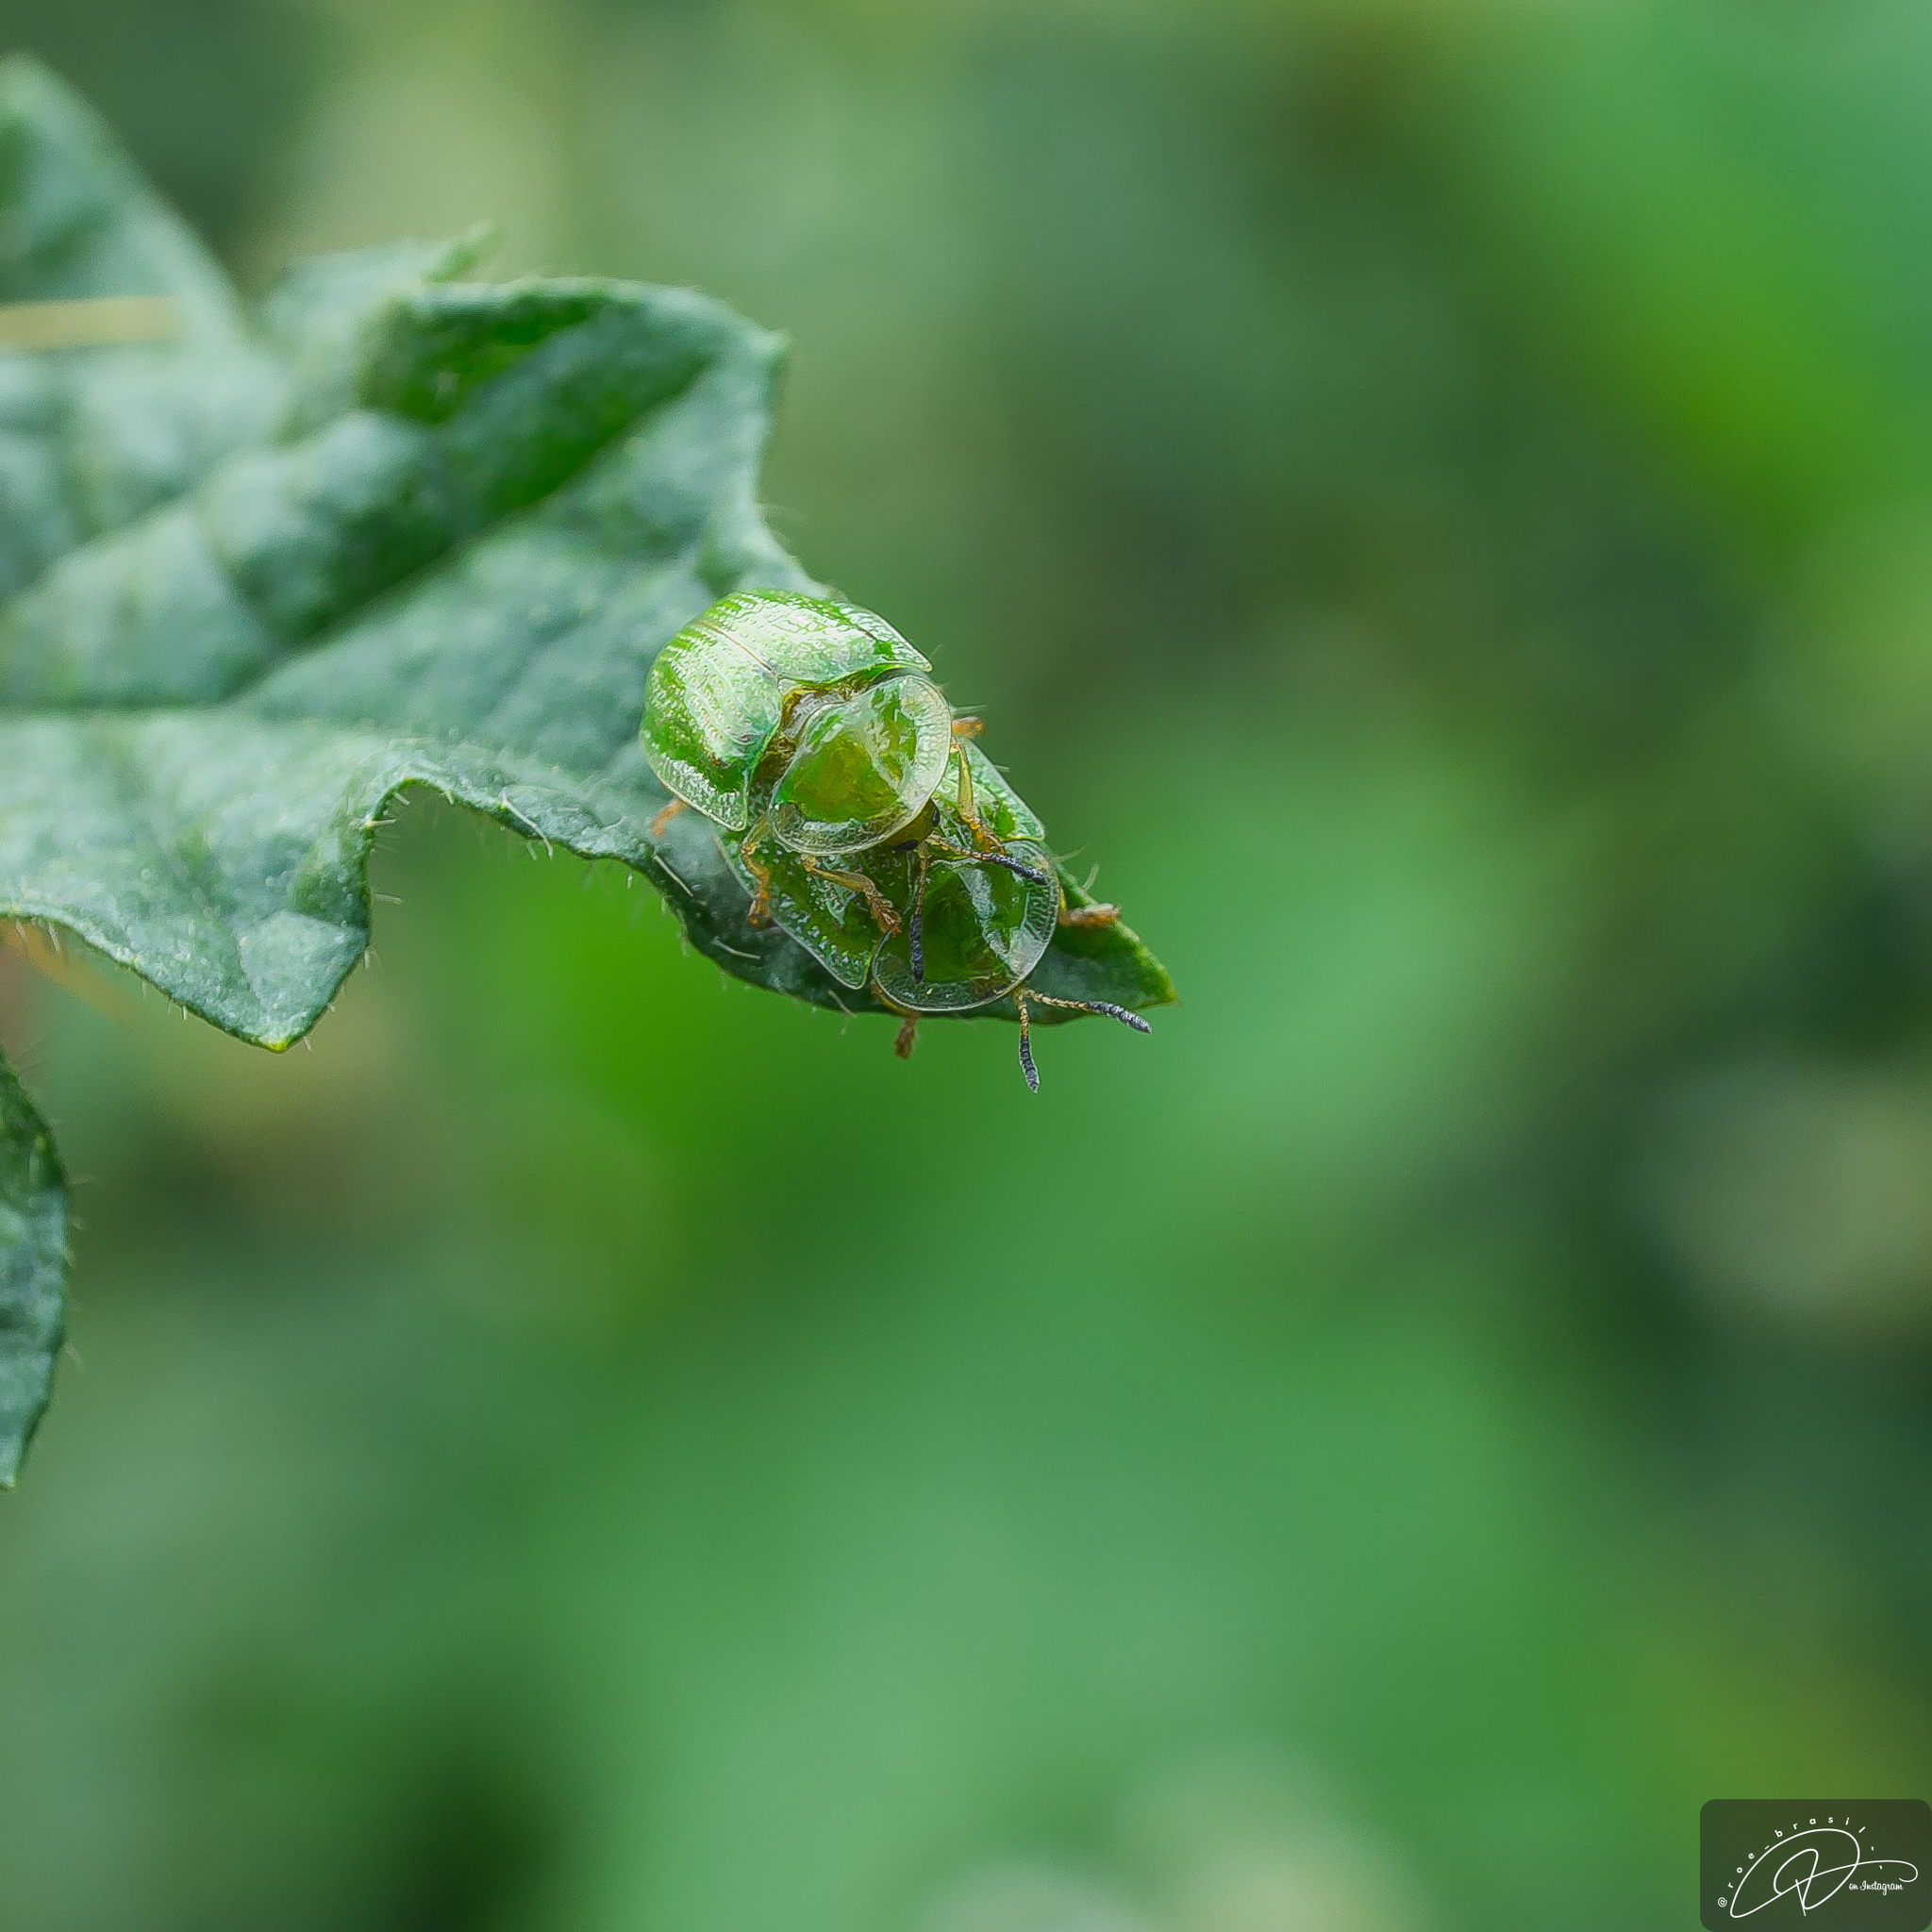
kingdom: Animalia
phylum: Arthropoda
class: Insecta
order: Coleoptera
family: Chrysomelidae
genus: Gratiana
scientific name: Gratiana spadicea
